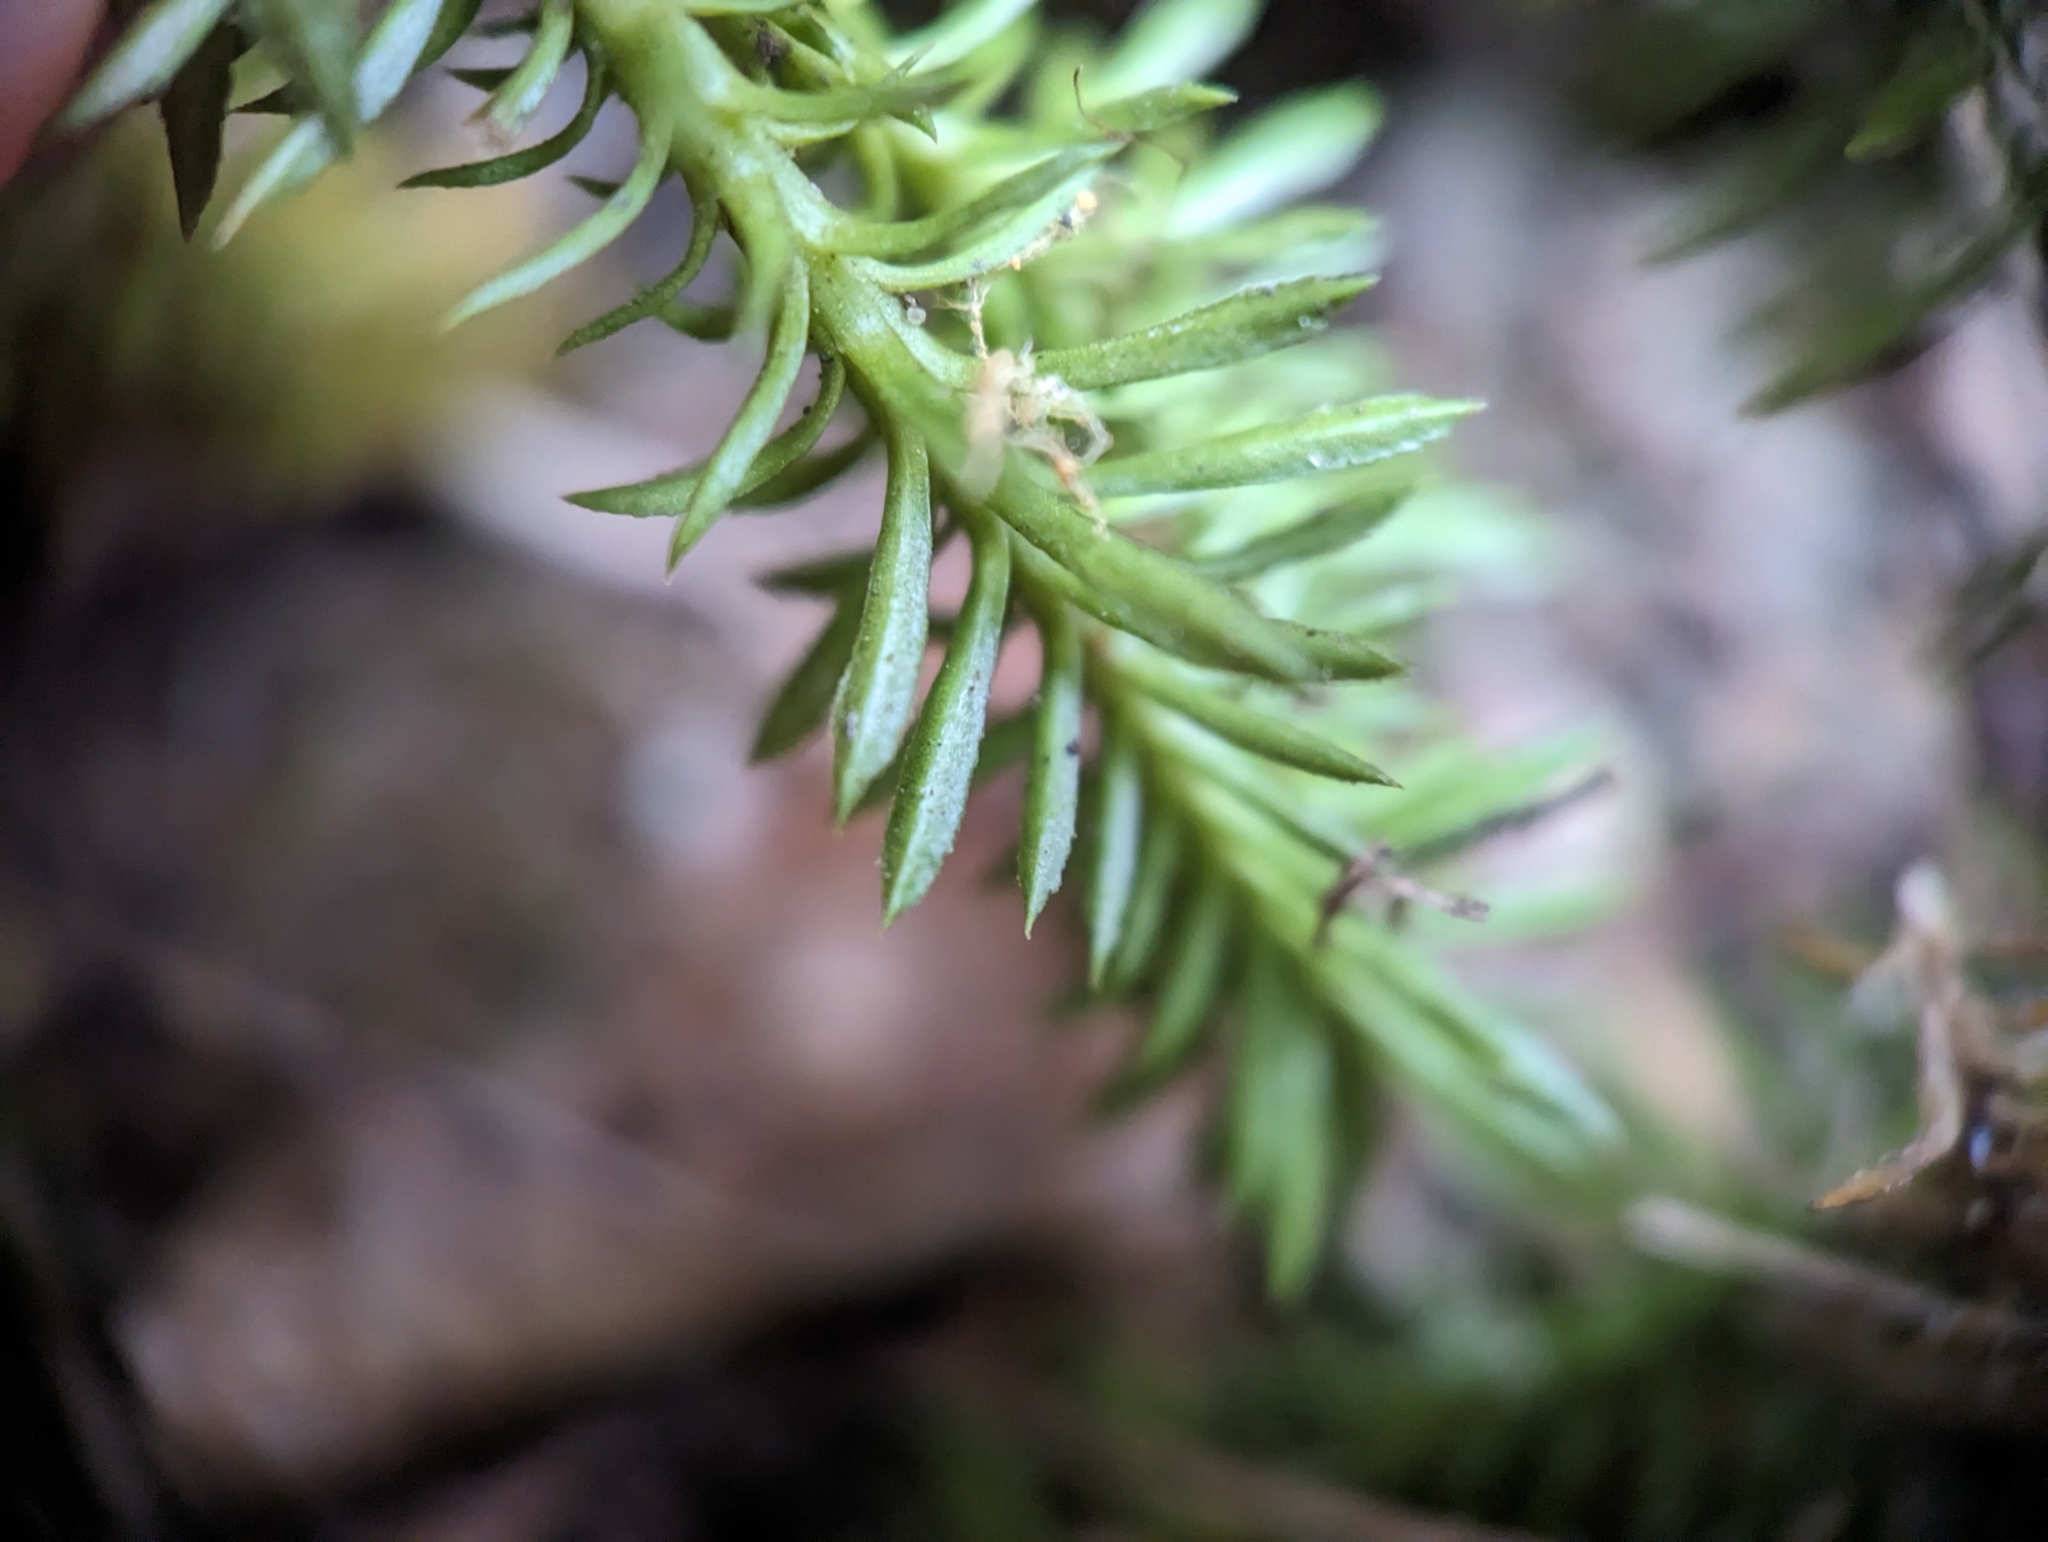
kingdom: Plantae
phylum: Tracheophyta
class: Lycopodiopsida
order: Lycopodiales
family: Lycopodiaceae
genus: Huperzia
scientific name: Huperzia lucidula
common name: Shining clubmoss
